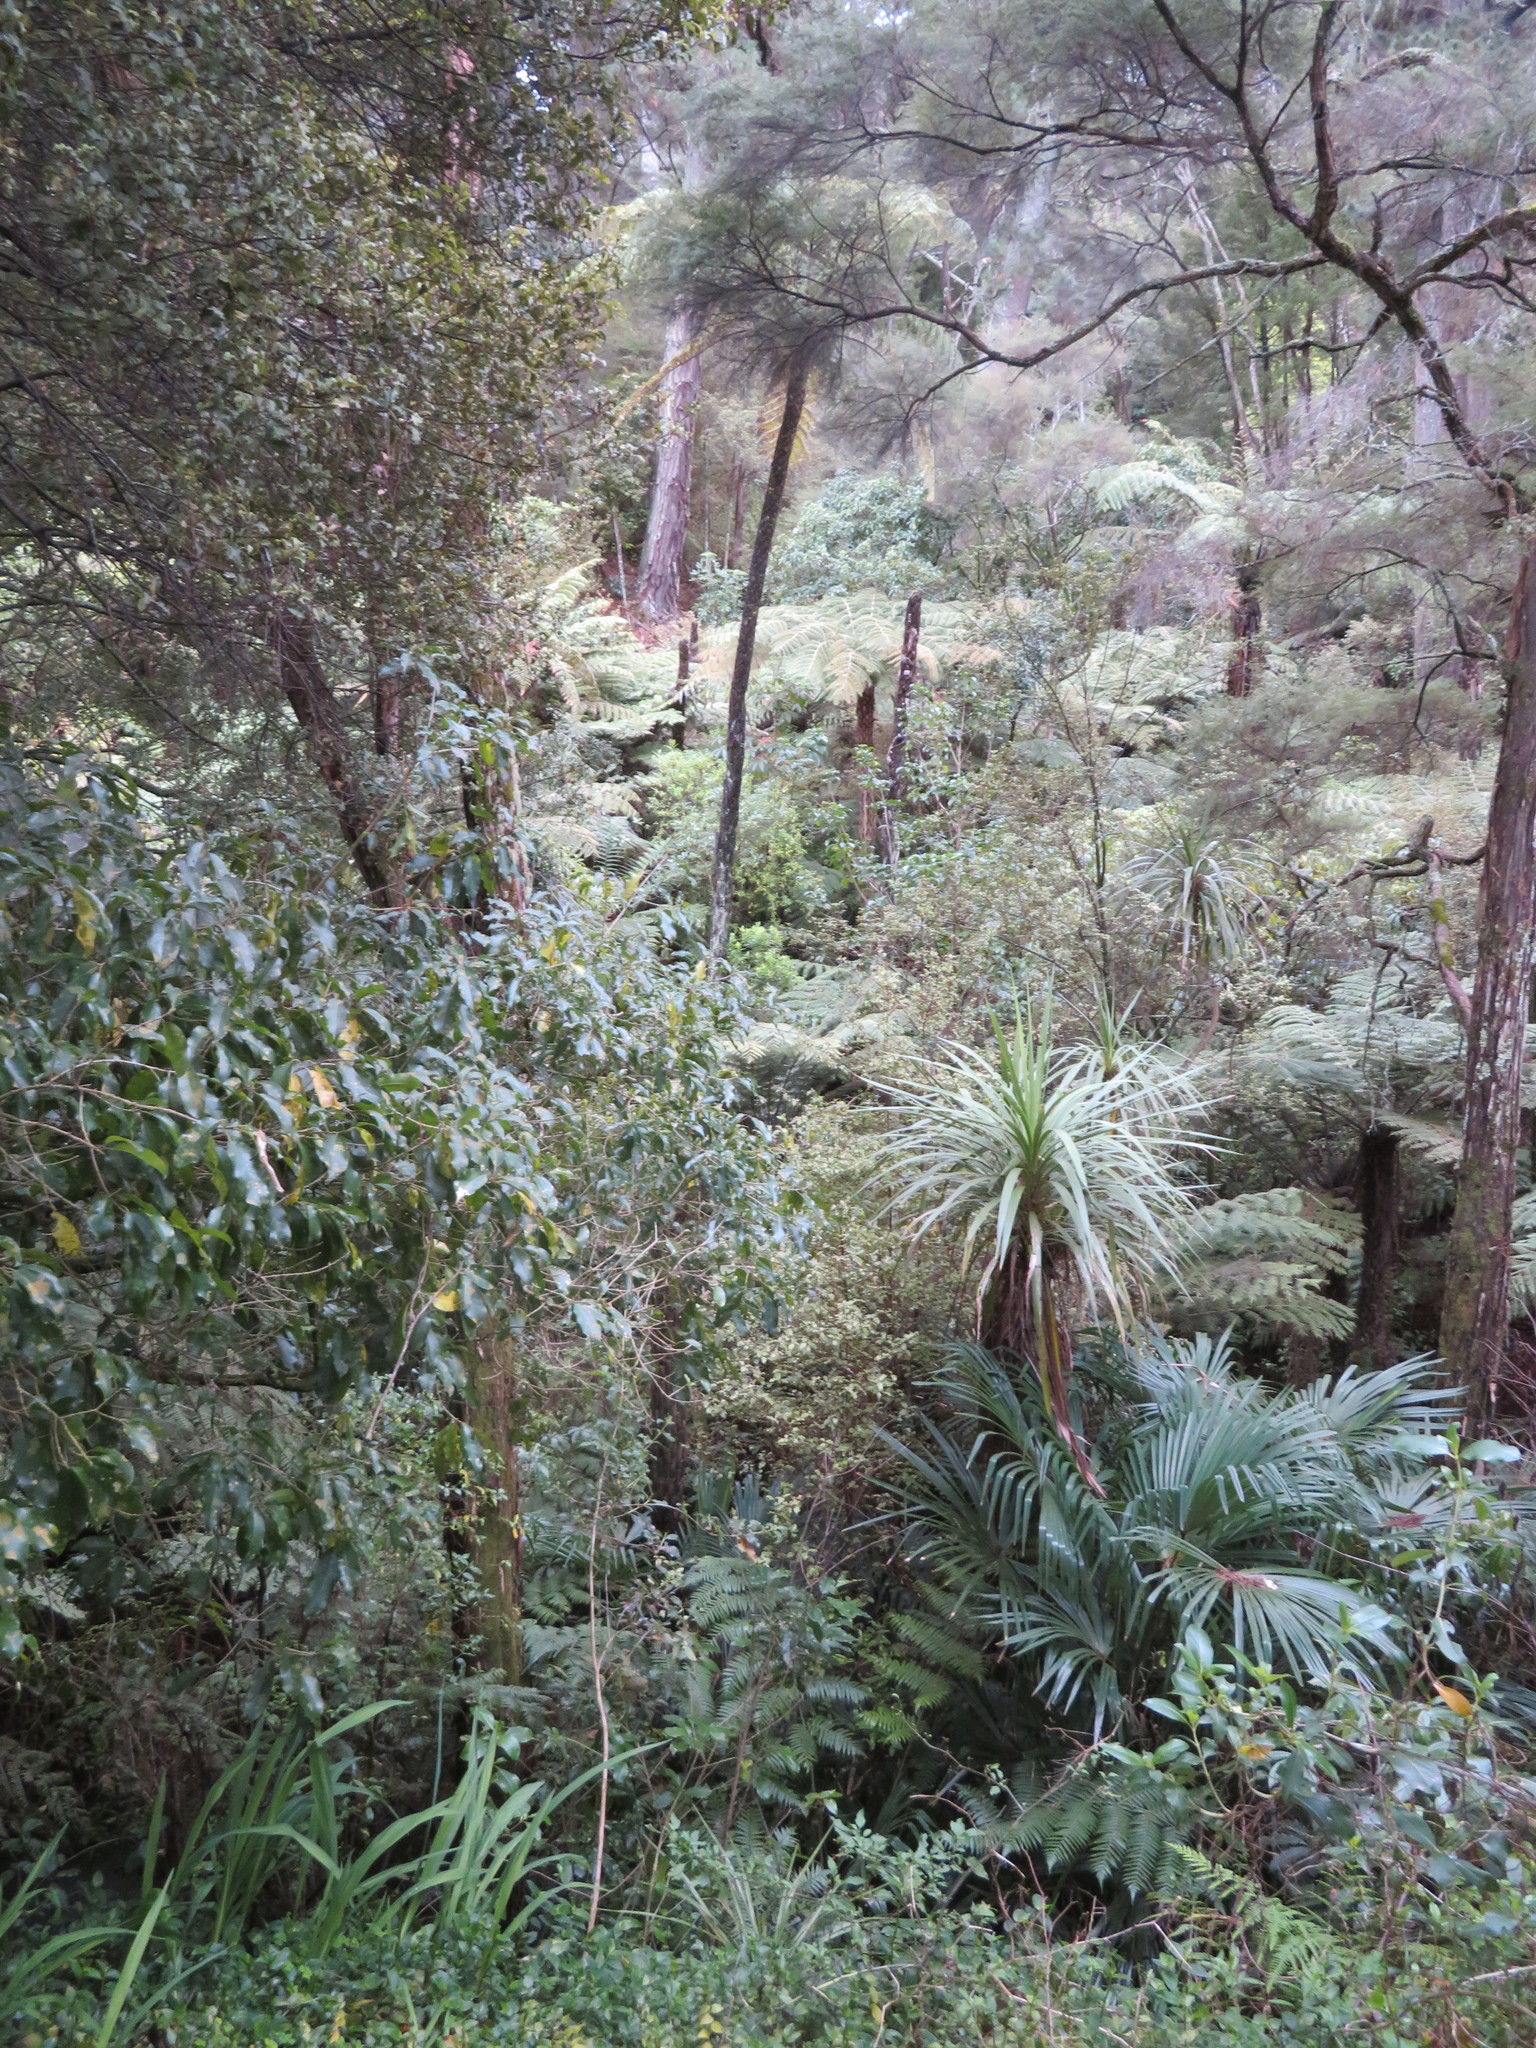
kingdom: Plantae
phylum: Tracheophyta
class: Polypodiopsida
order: Cyatheales
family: Cyatheaceae
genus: Alsophila
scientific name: Alsophila dealbata
